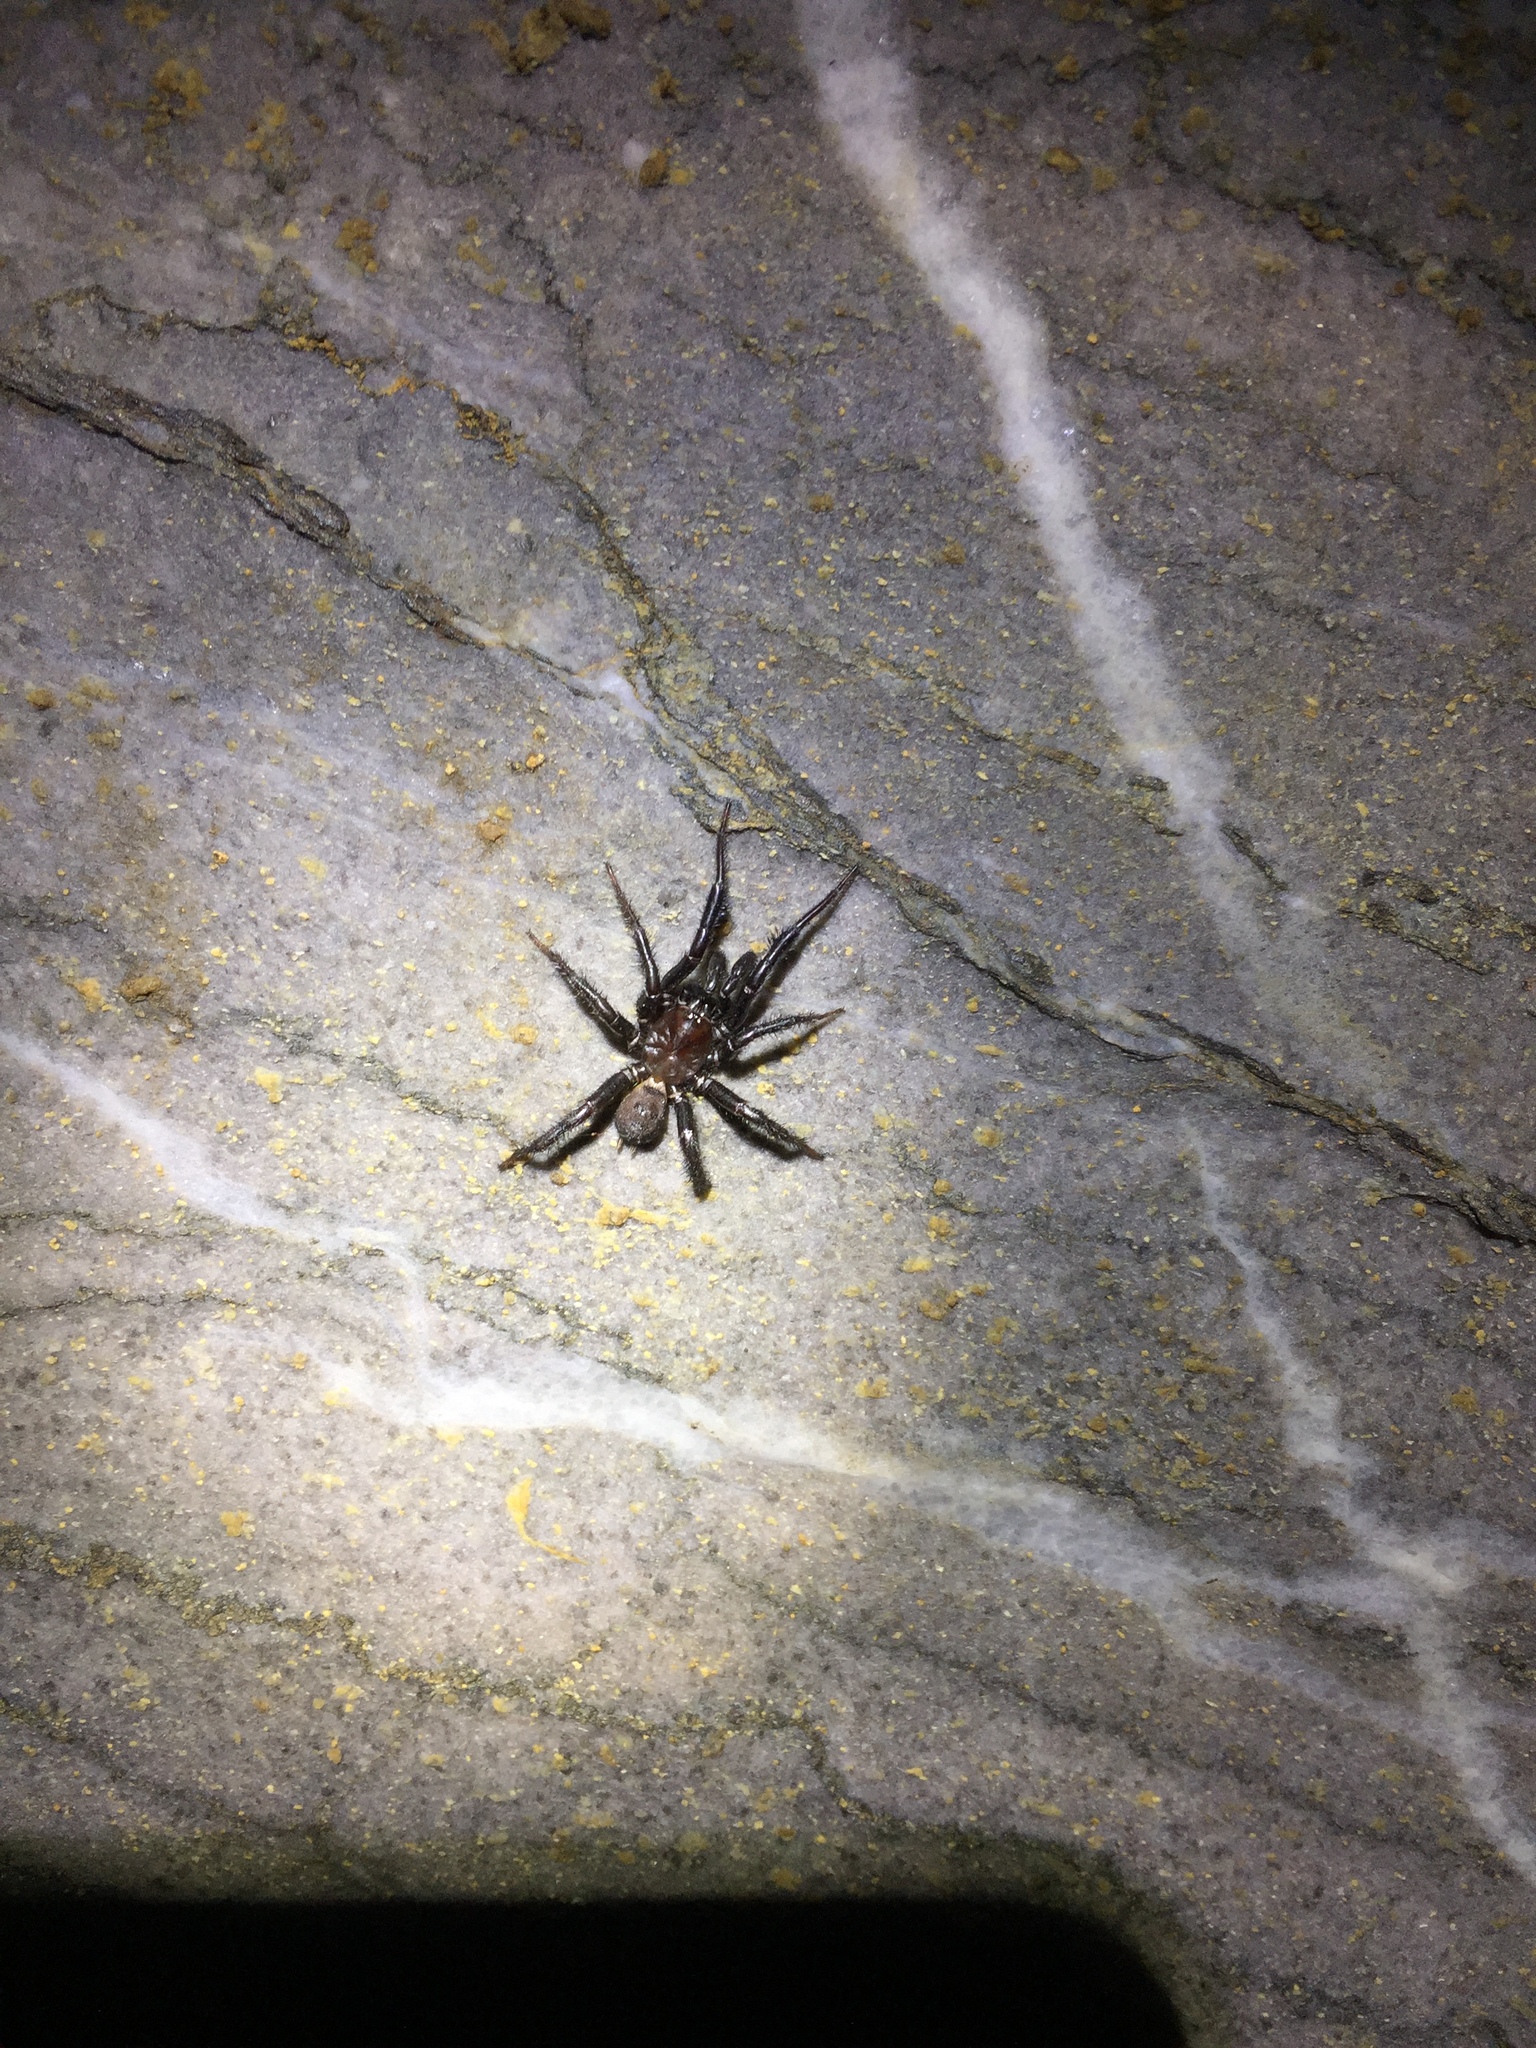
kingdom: Animalia
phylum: Arthropoda
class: Arachnida
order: Araneae
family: Antrodiaetidae
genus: Antrodiaetus
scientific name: Antrodiaetus pacificus
